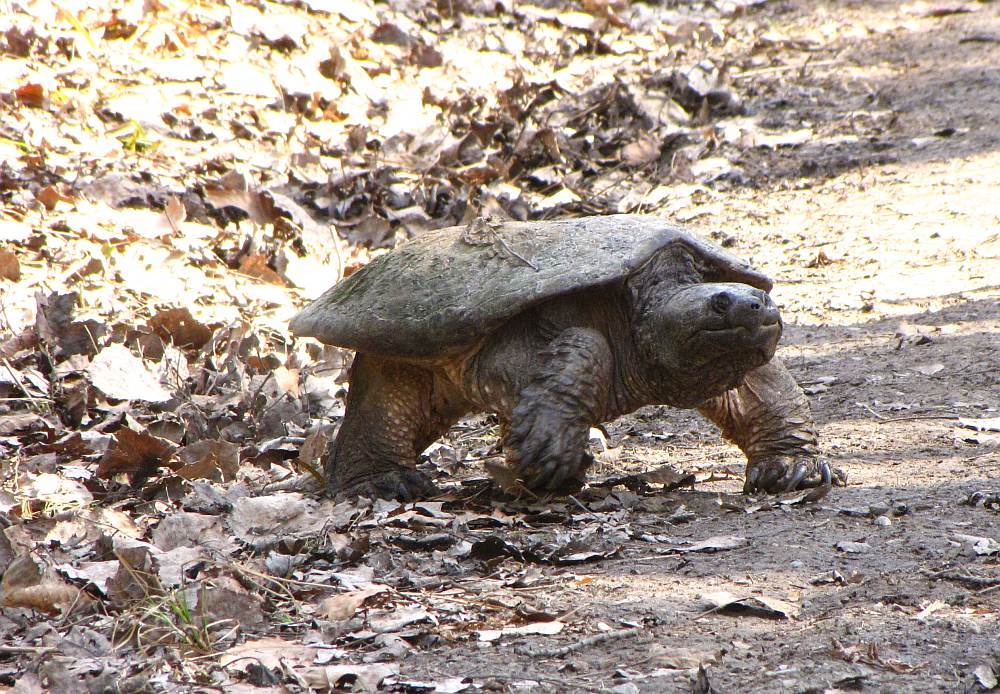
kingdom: Animalia
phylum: Chordata
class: Testudines
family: Chelydridae
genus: Chelydra
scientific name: Chelydra serpentina
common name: Common snapping turtle
